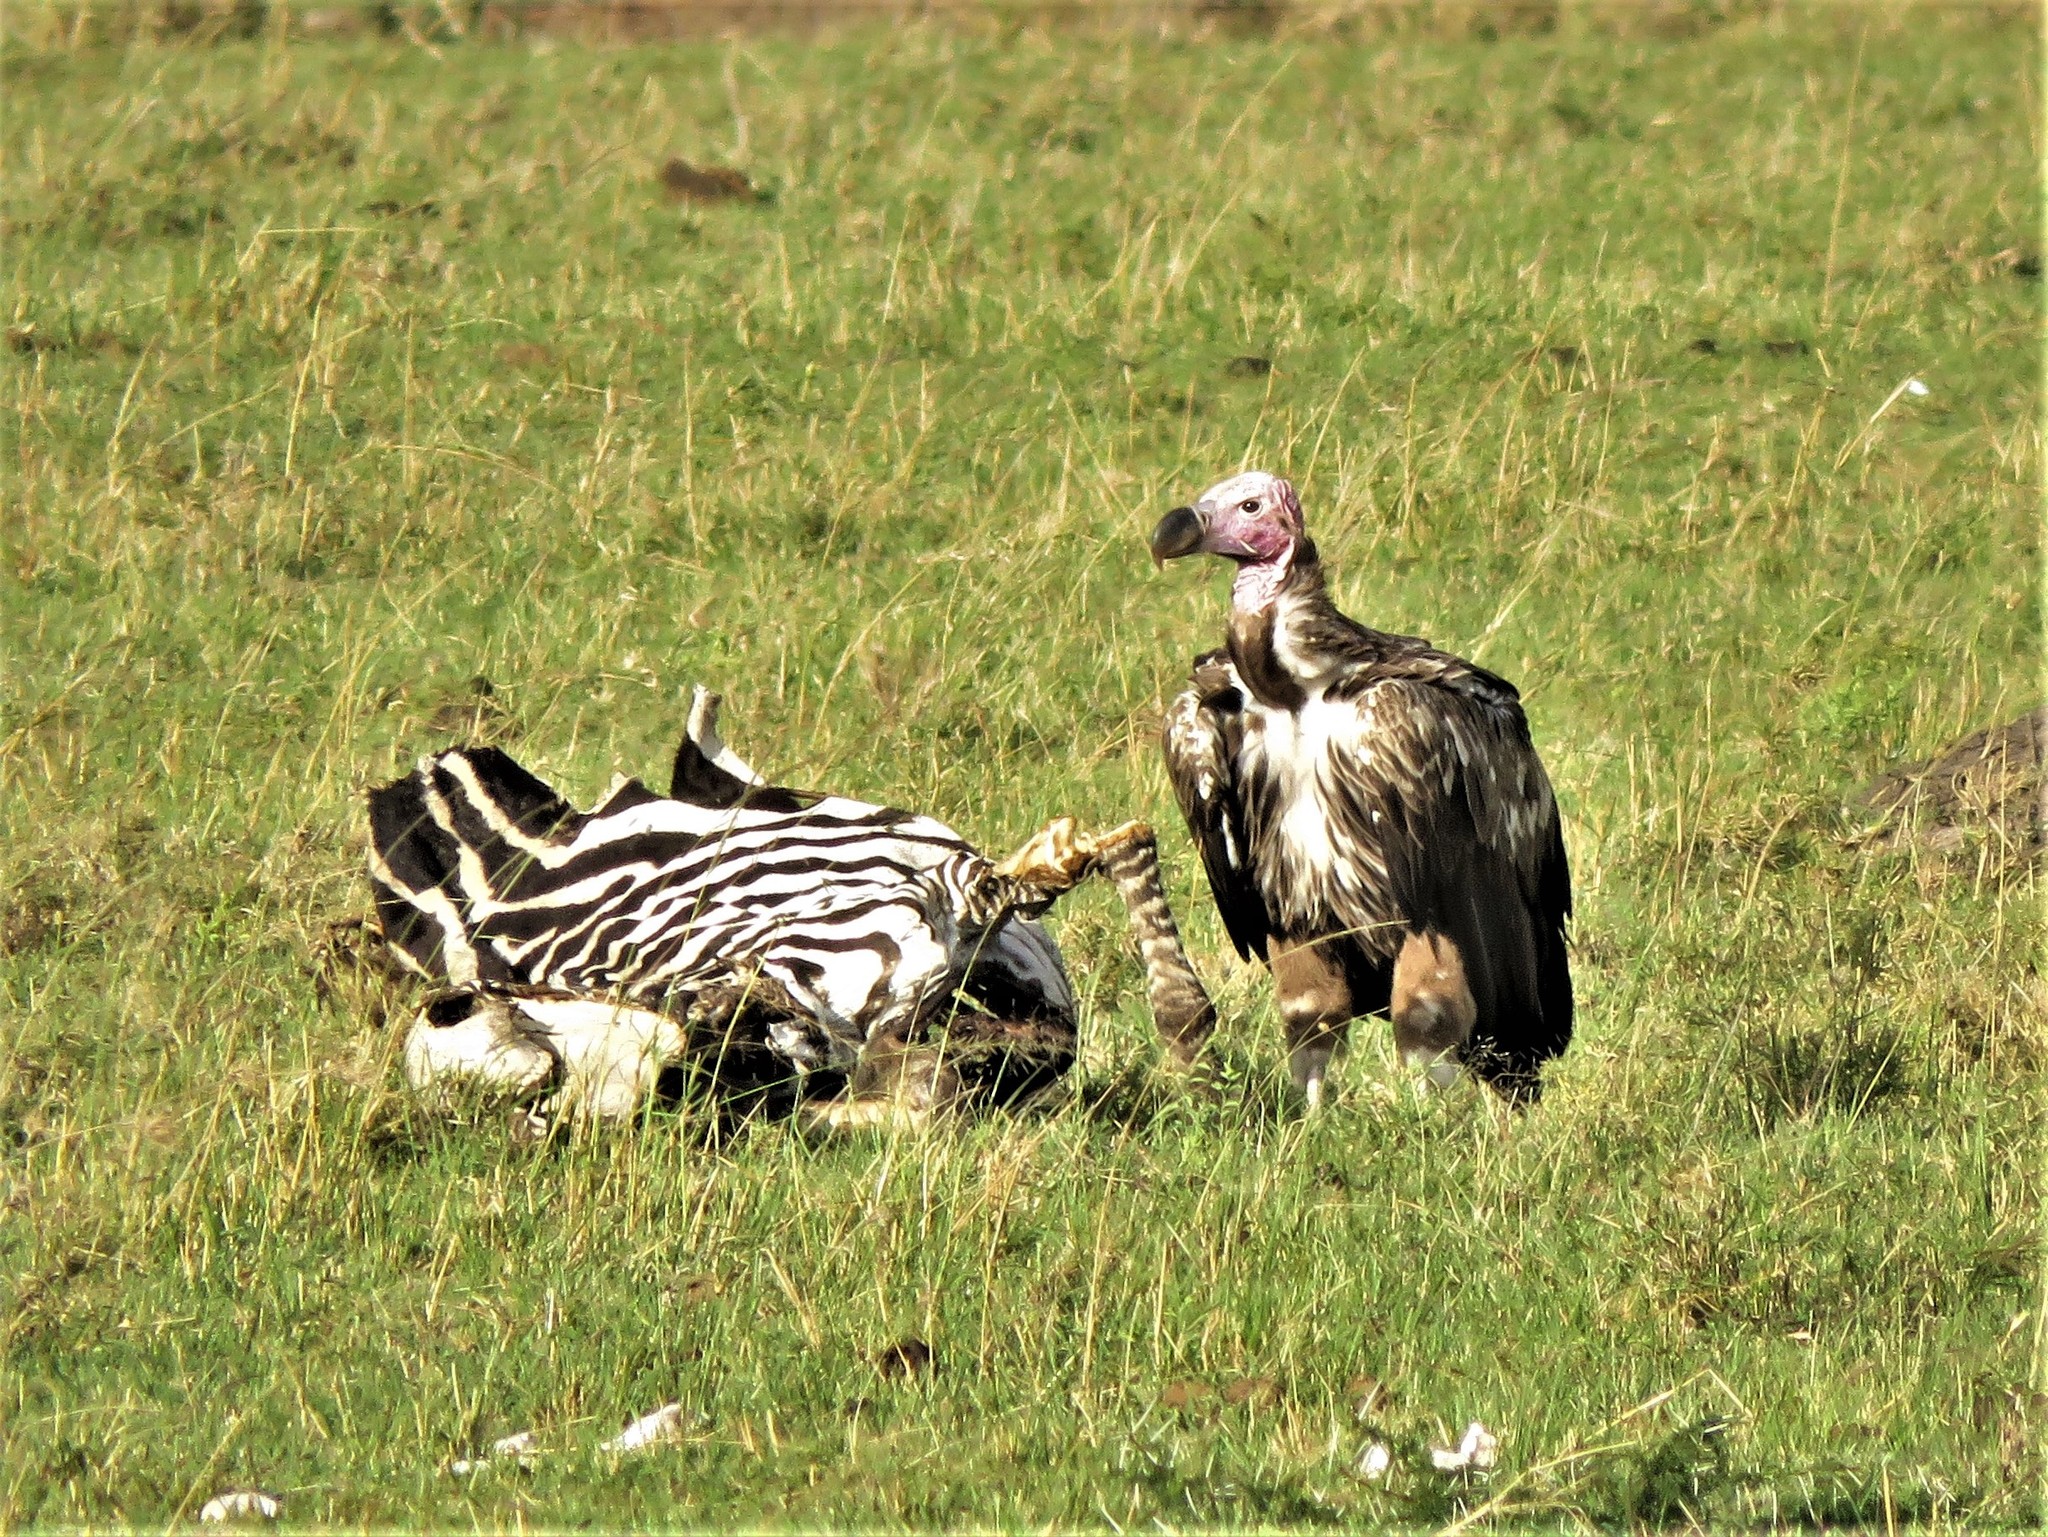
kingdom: Animalia
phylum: Chordata
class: Aves
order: Accipitriformes
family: Accipitridae
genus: Torgos
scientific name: Torgos tracheliotos
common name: Lappet-faced vulture
